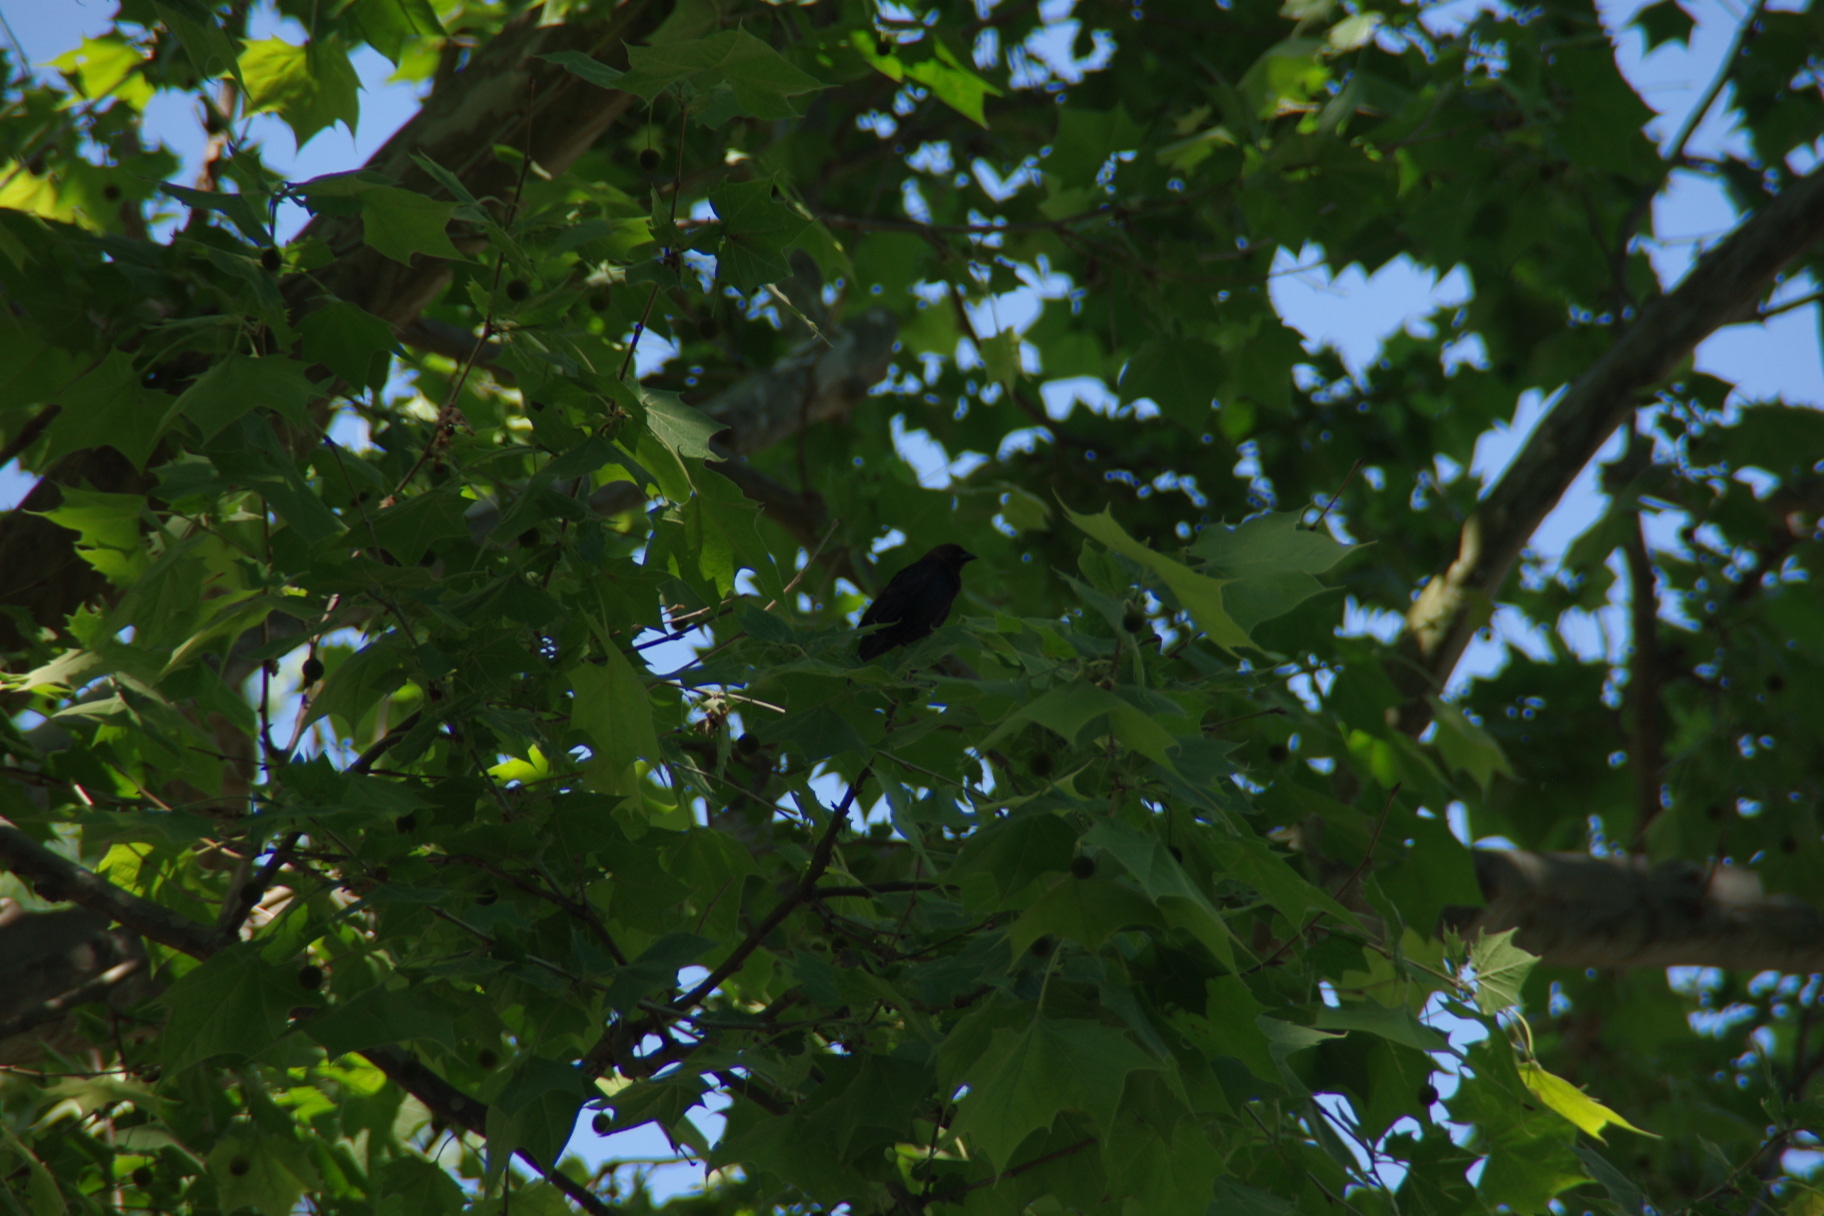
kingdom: Animalia
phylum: Chordata
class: Aves
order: Passeriformes
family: Icteridae
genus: Molothrus
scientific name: Molothrus ater
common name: Brown-headed cowbird
